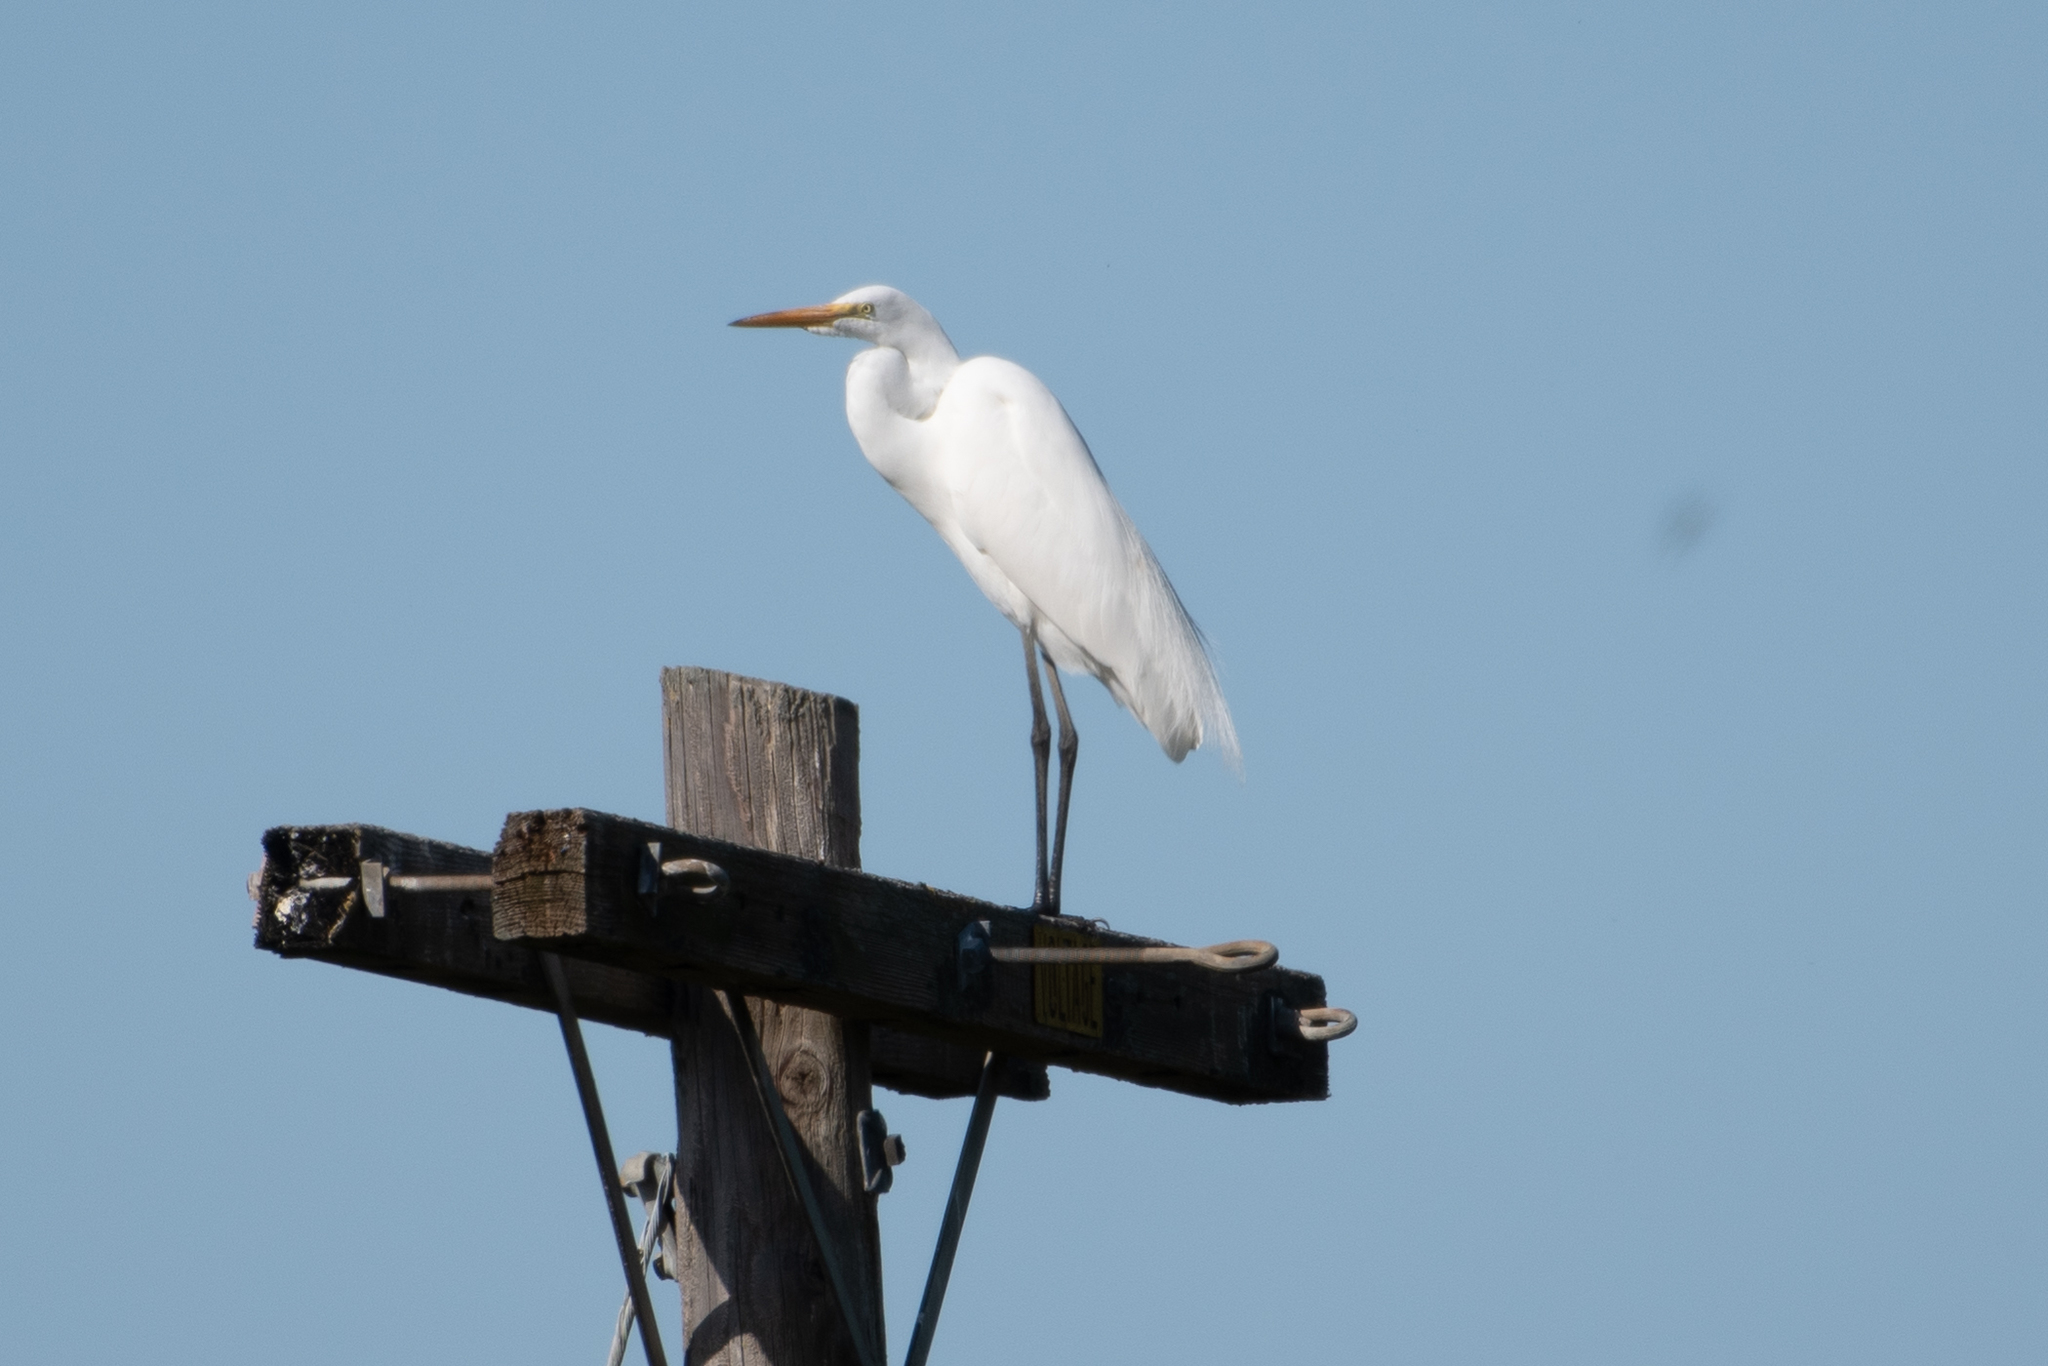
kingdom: Animalia
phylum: Chordata
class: Aves
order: Pelecaniformes
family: Ardeidae
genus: Ardea
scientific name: Ardea alba
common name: Great egret
